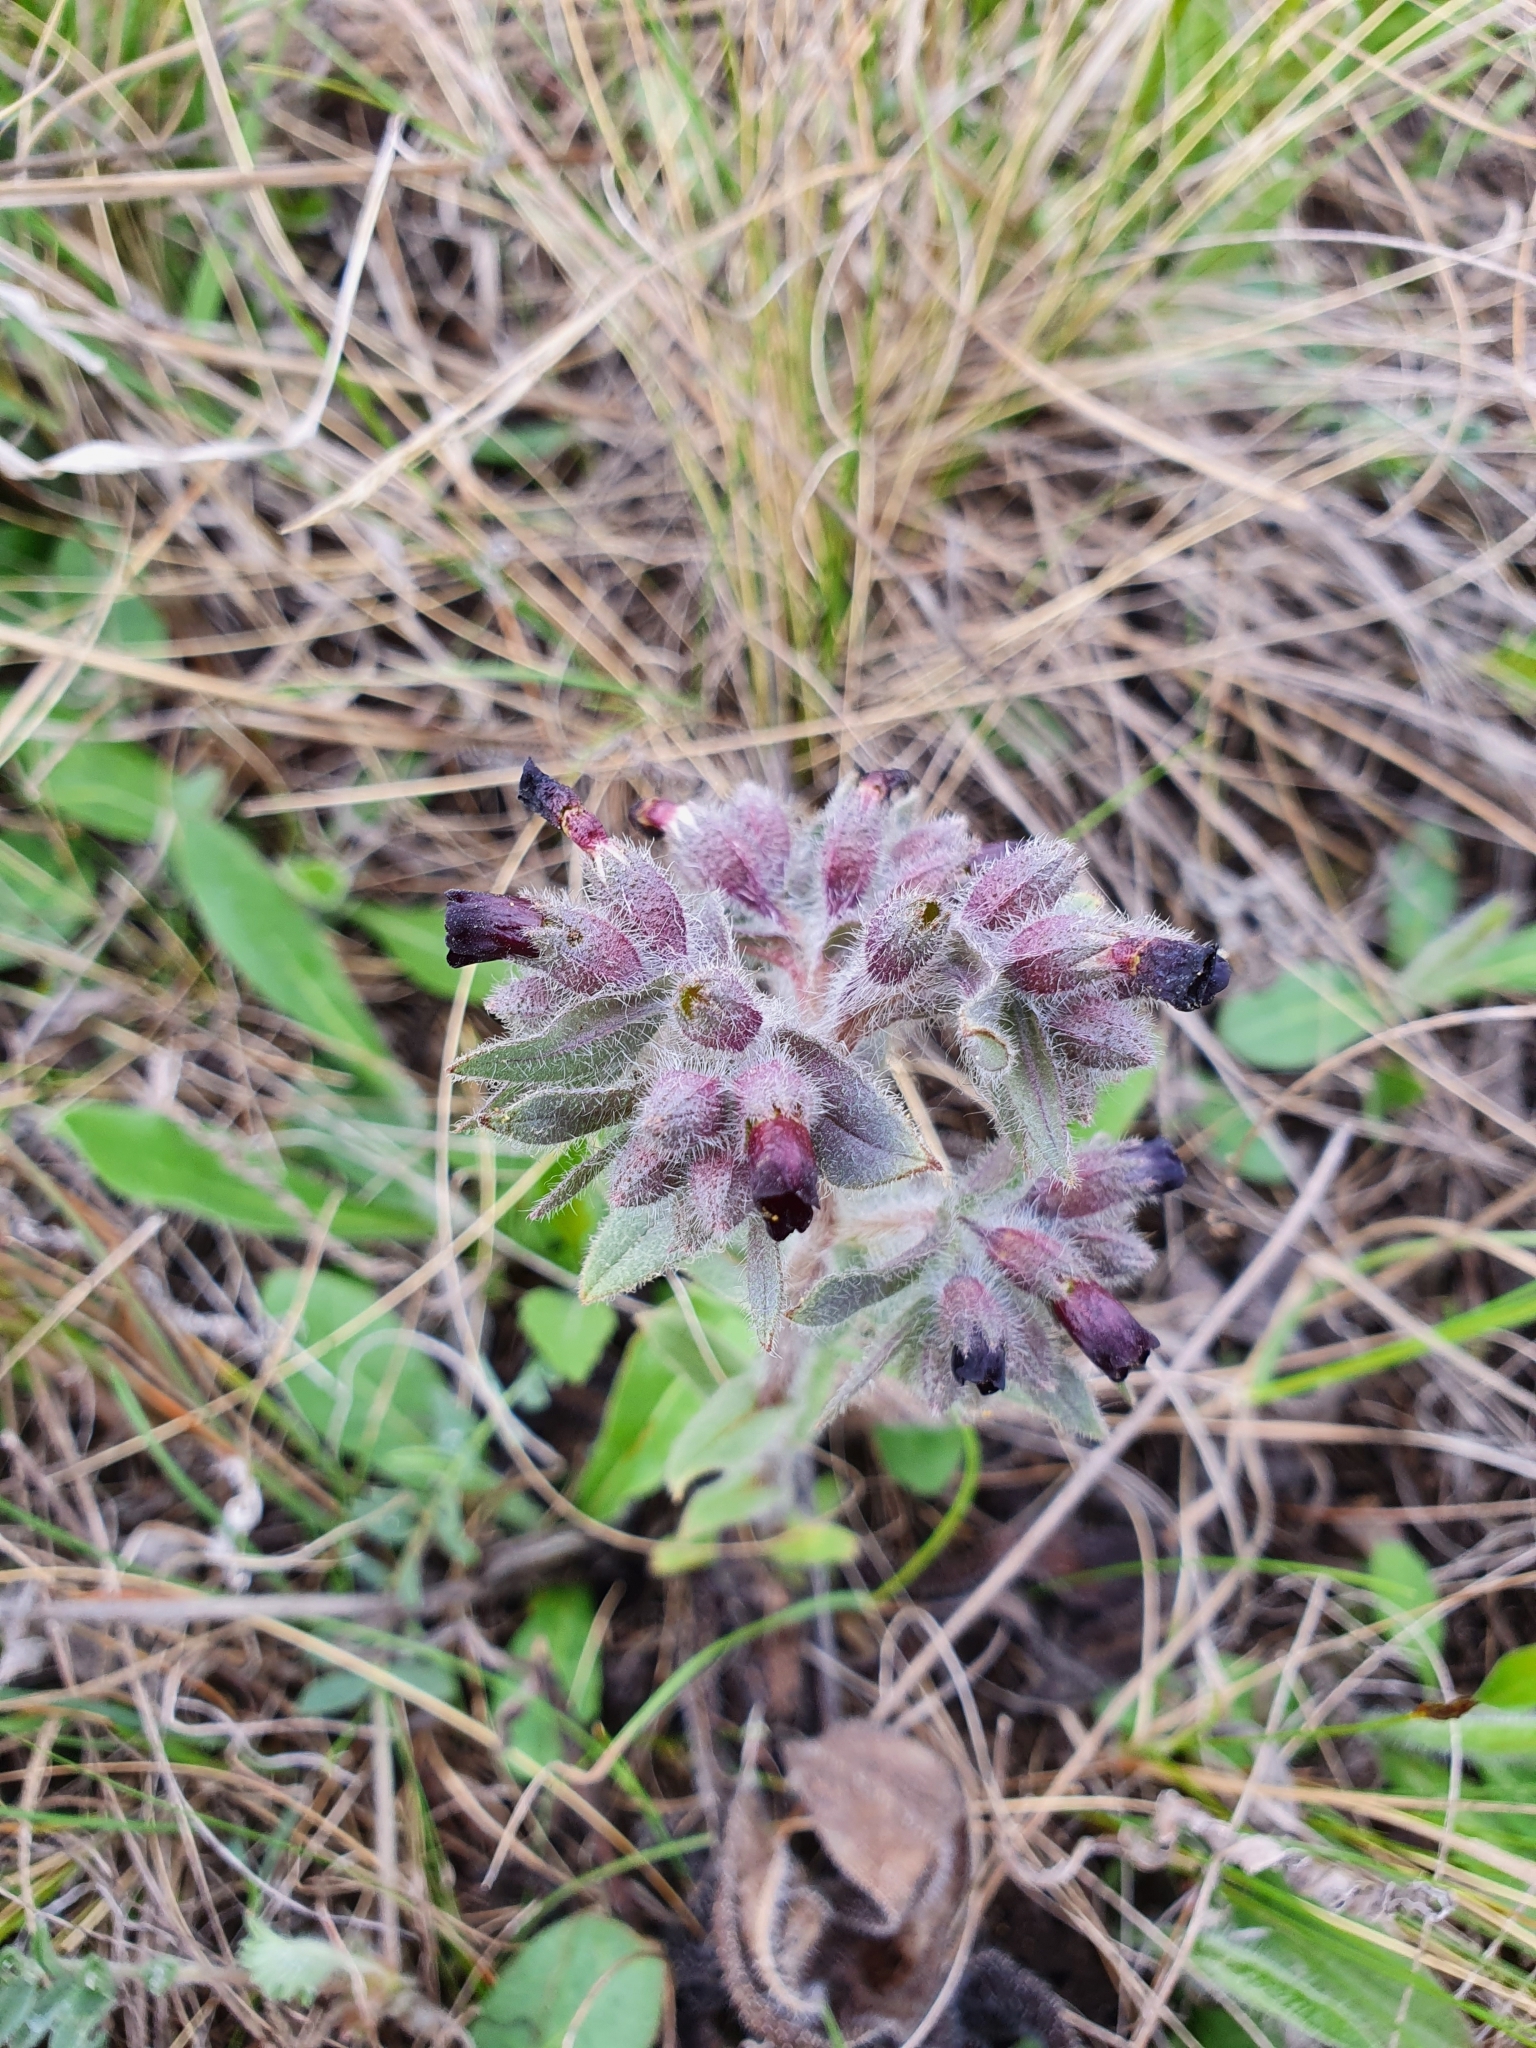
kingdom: Plantae
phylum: Tracheophyta
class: Magnoliopsida
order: Boraginales
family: Boraginaceae
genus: Nonea
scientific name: Nonea pulla
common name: Brown nonea
